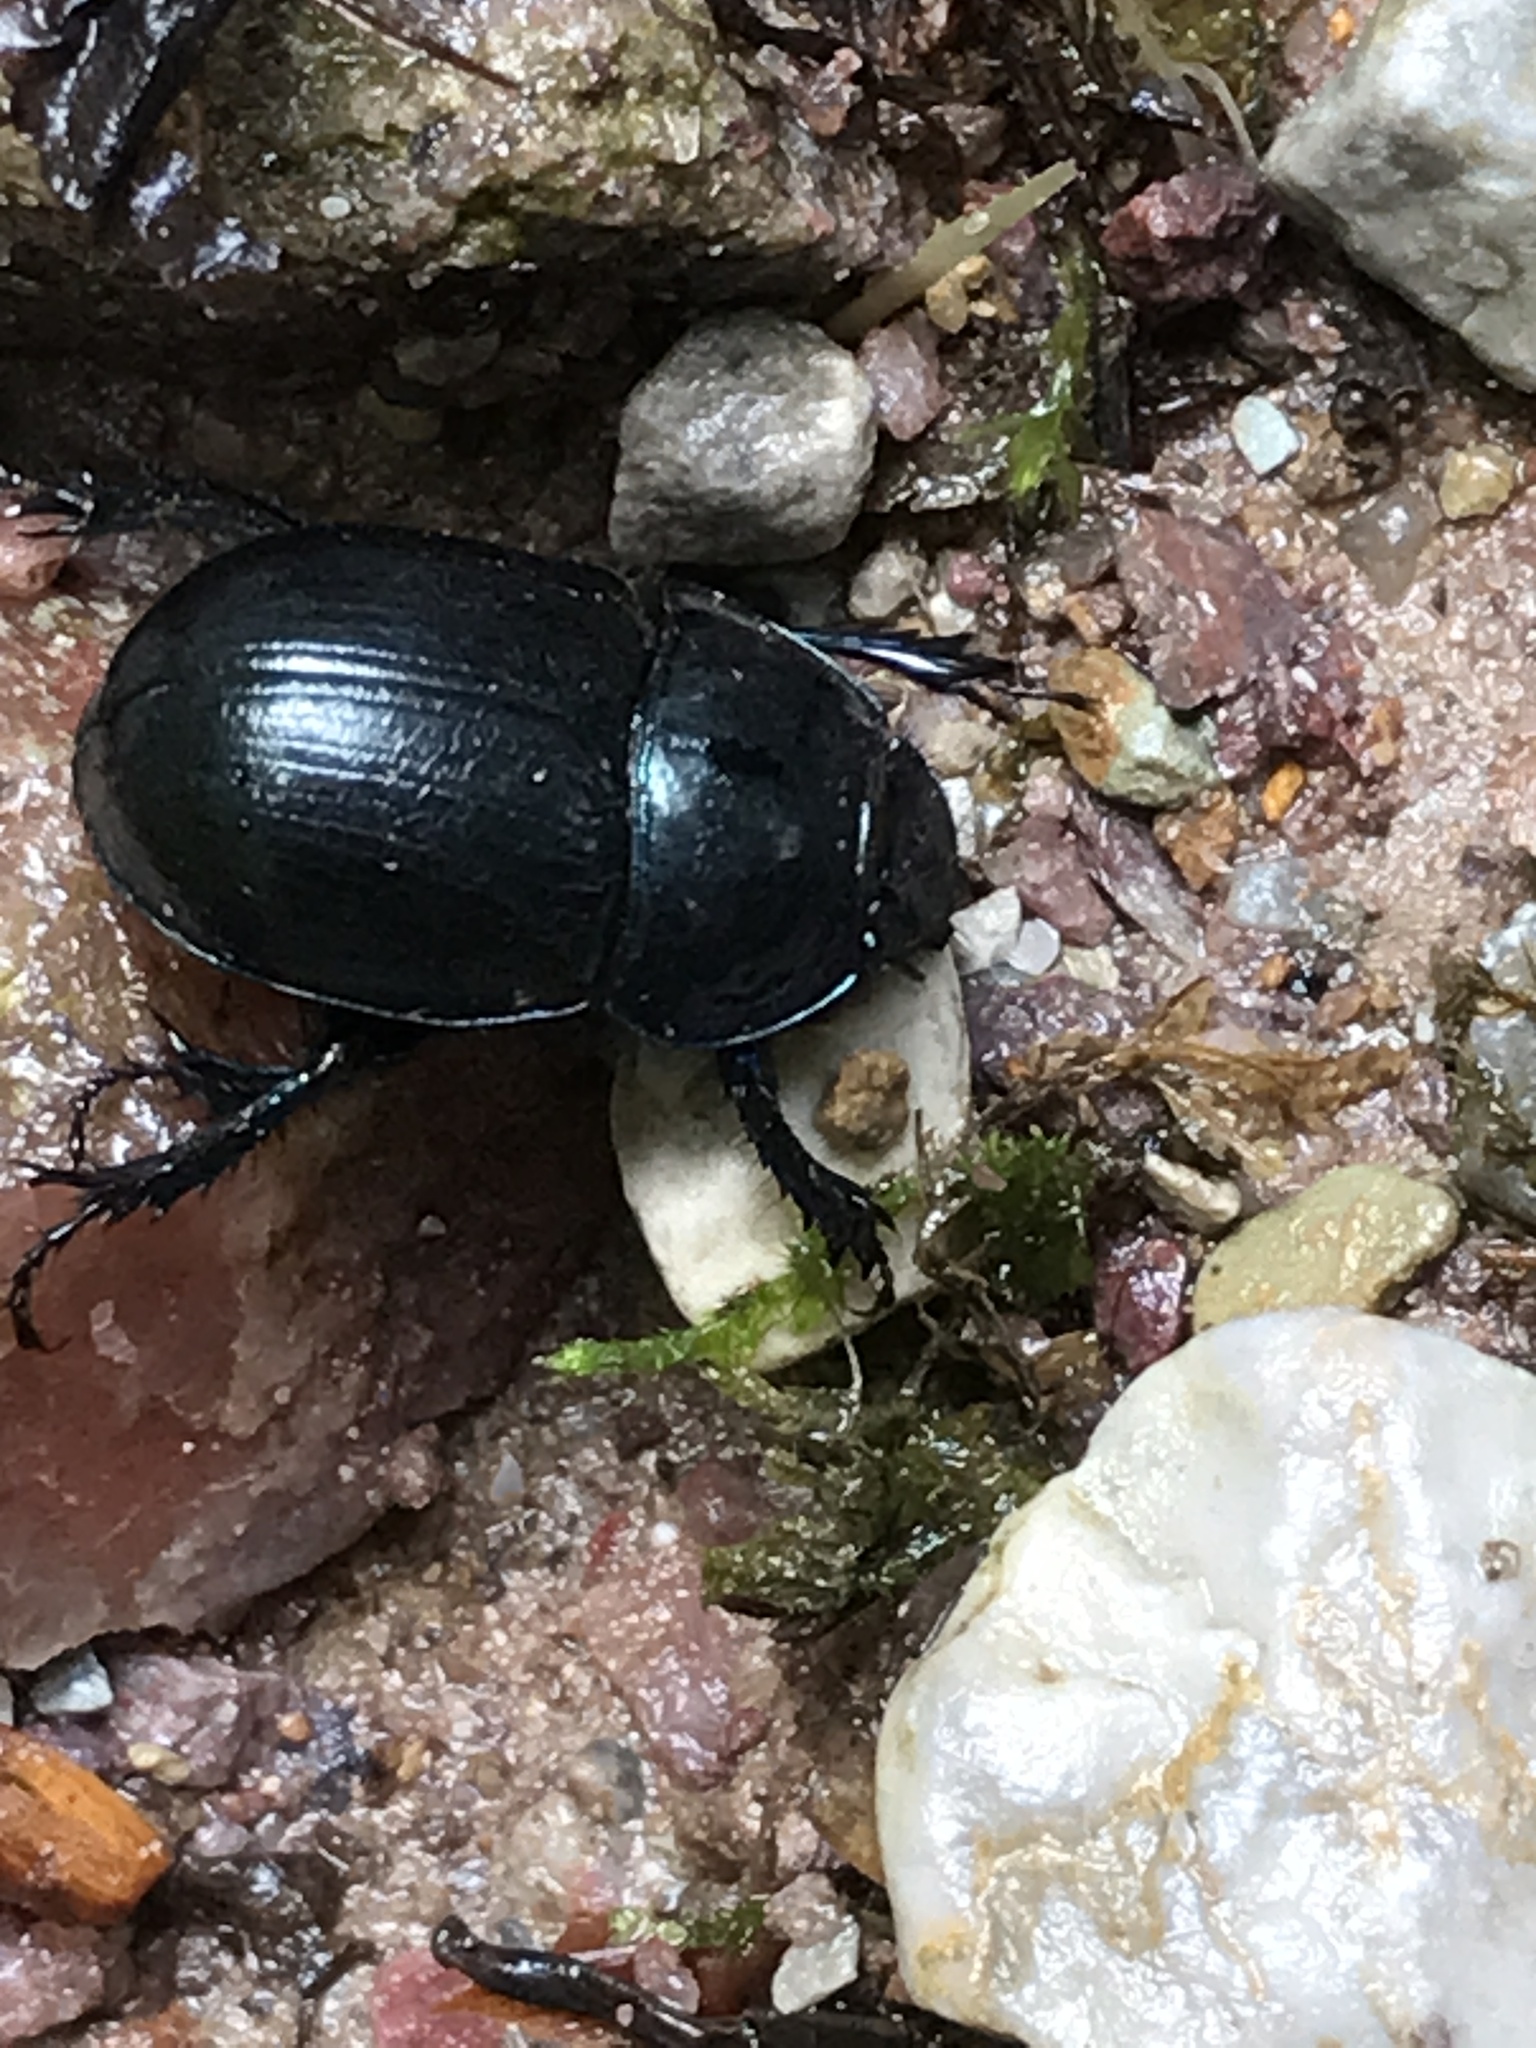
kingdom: Animalia
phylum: Arthropoda
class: Insecta
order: Coleoptera
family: Geotrupidae
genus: Anoplotrupes
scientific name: Anoplotrupes stercorosus
